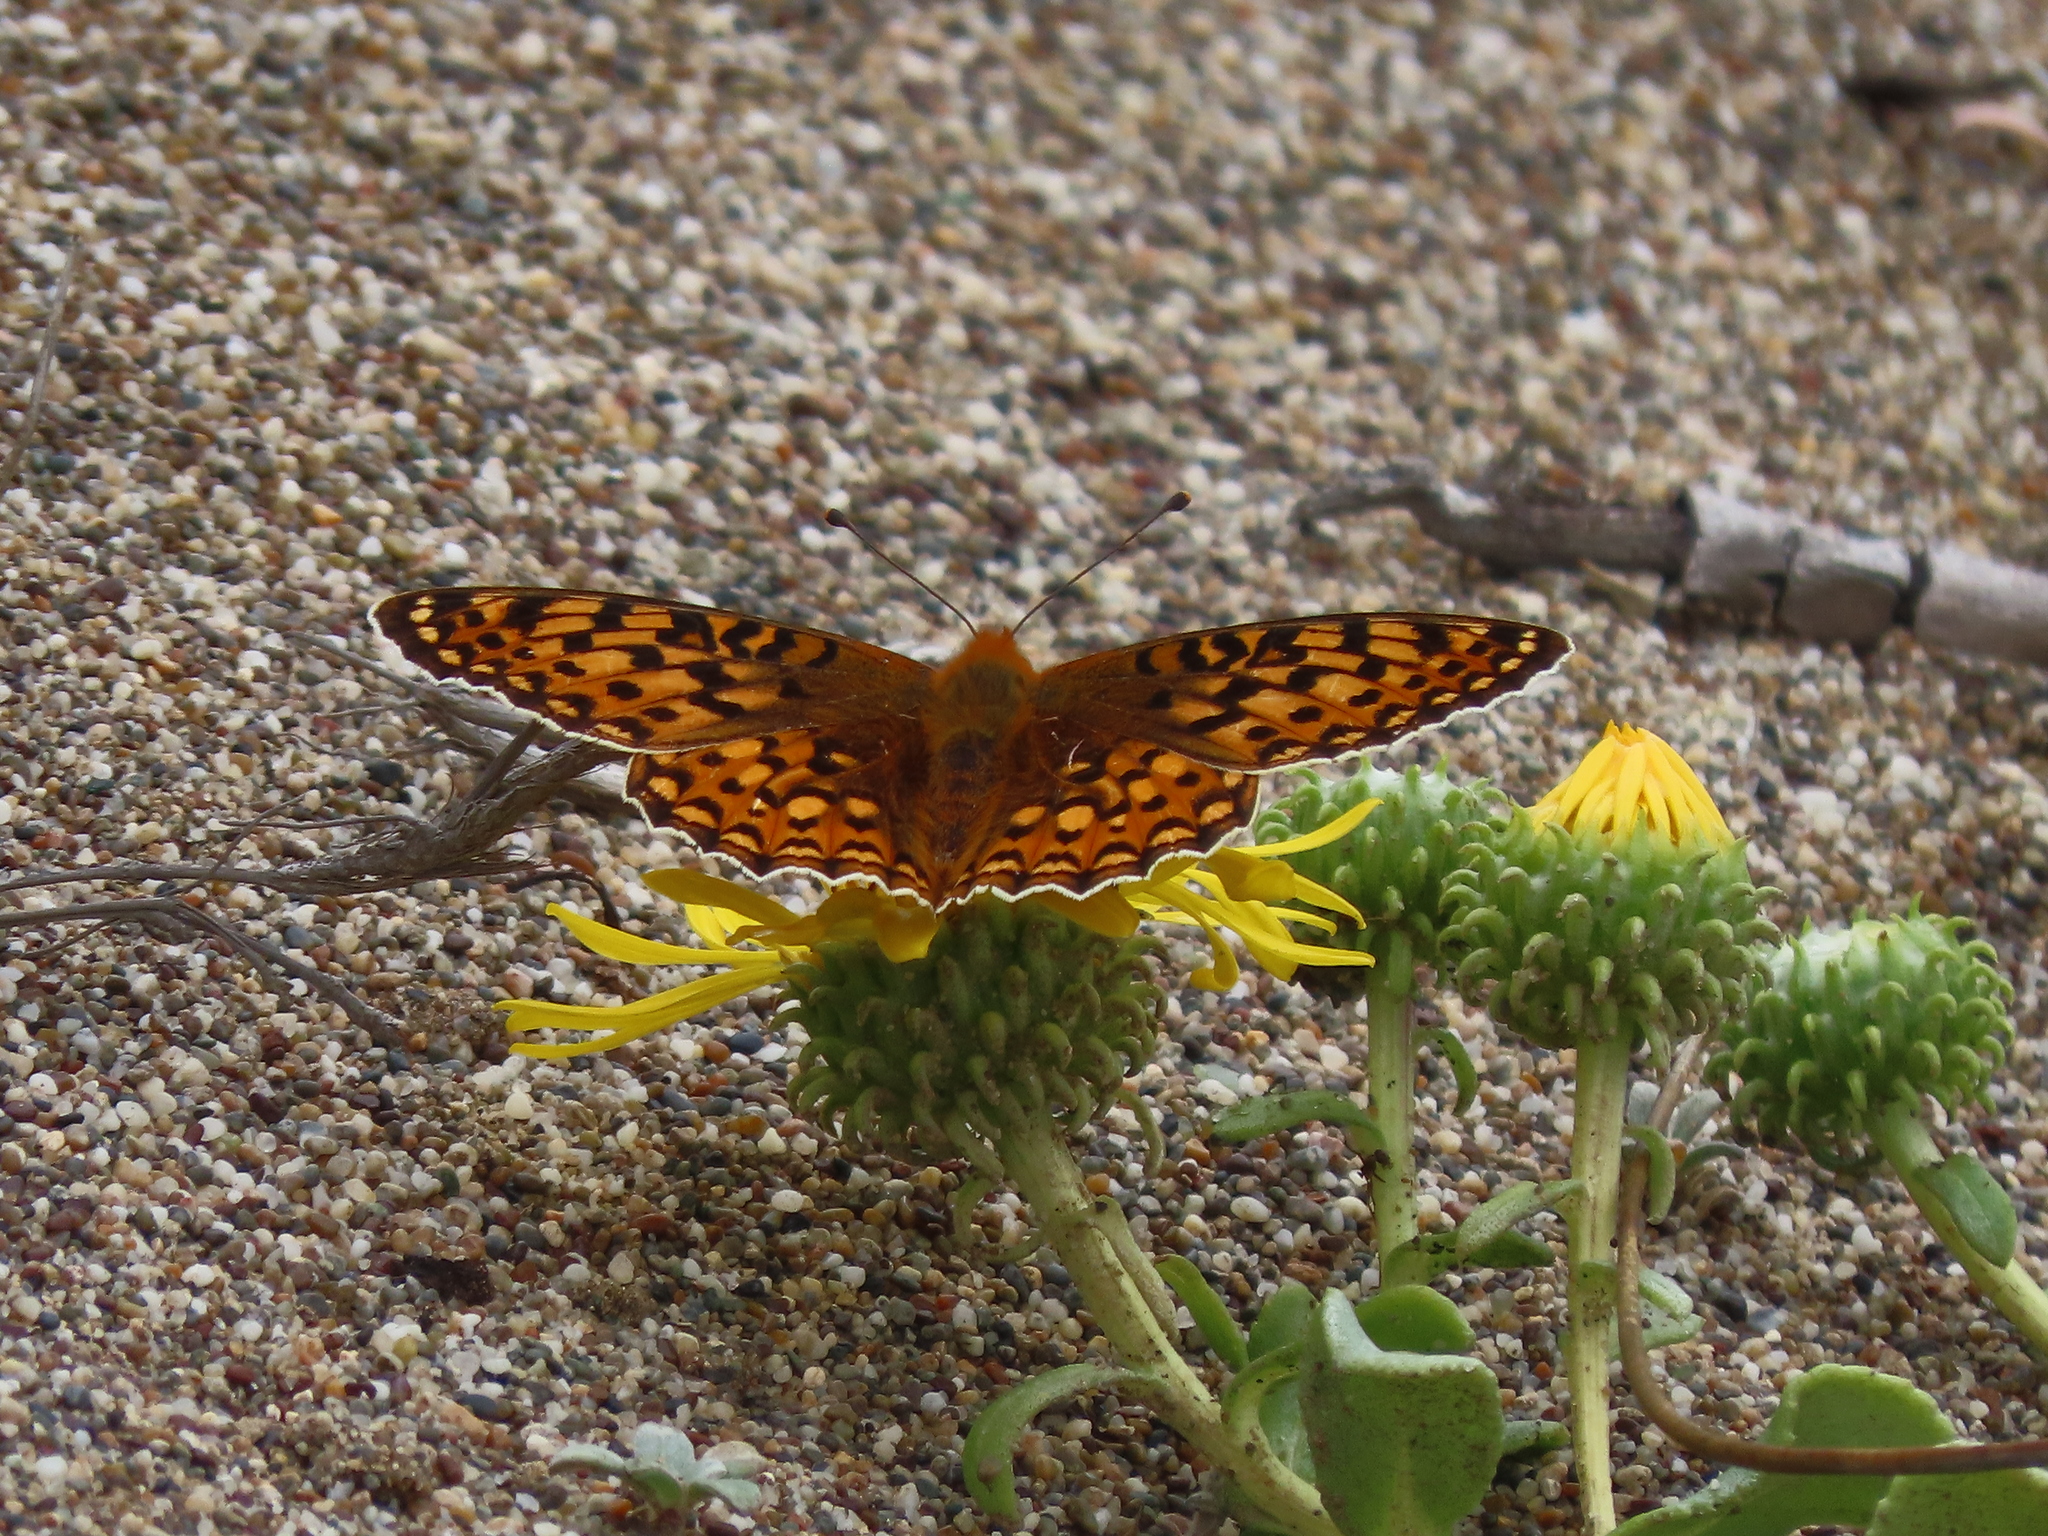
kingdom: Animalia
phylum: Arthropoda
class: Insecta
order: Lepidoptera
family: Nymphalidae
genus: Speyeria
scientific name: Speyeria zerene
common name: Zerene fritillary
